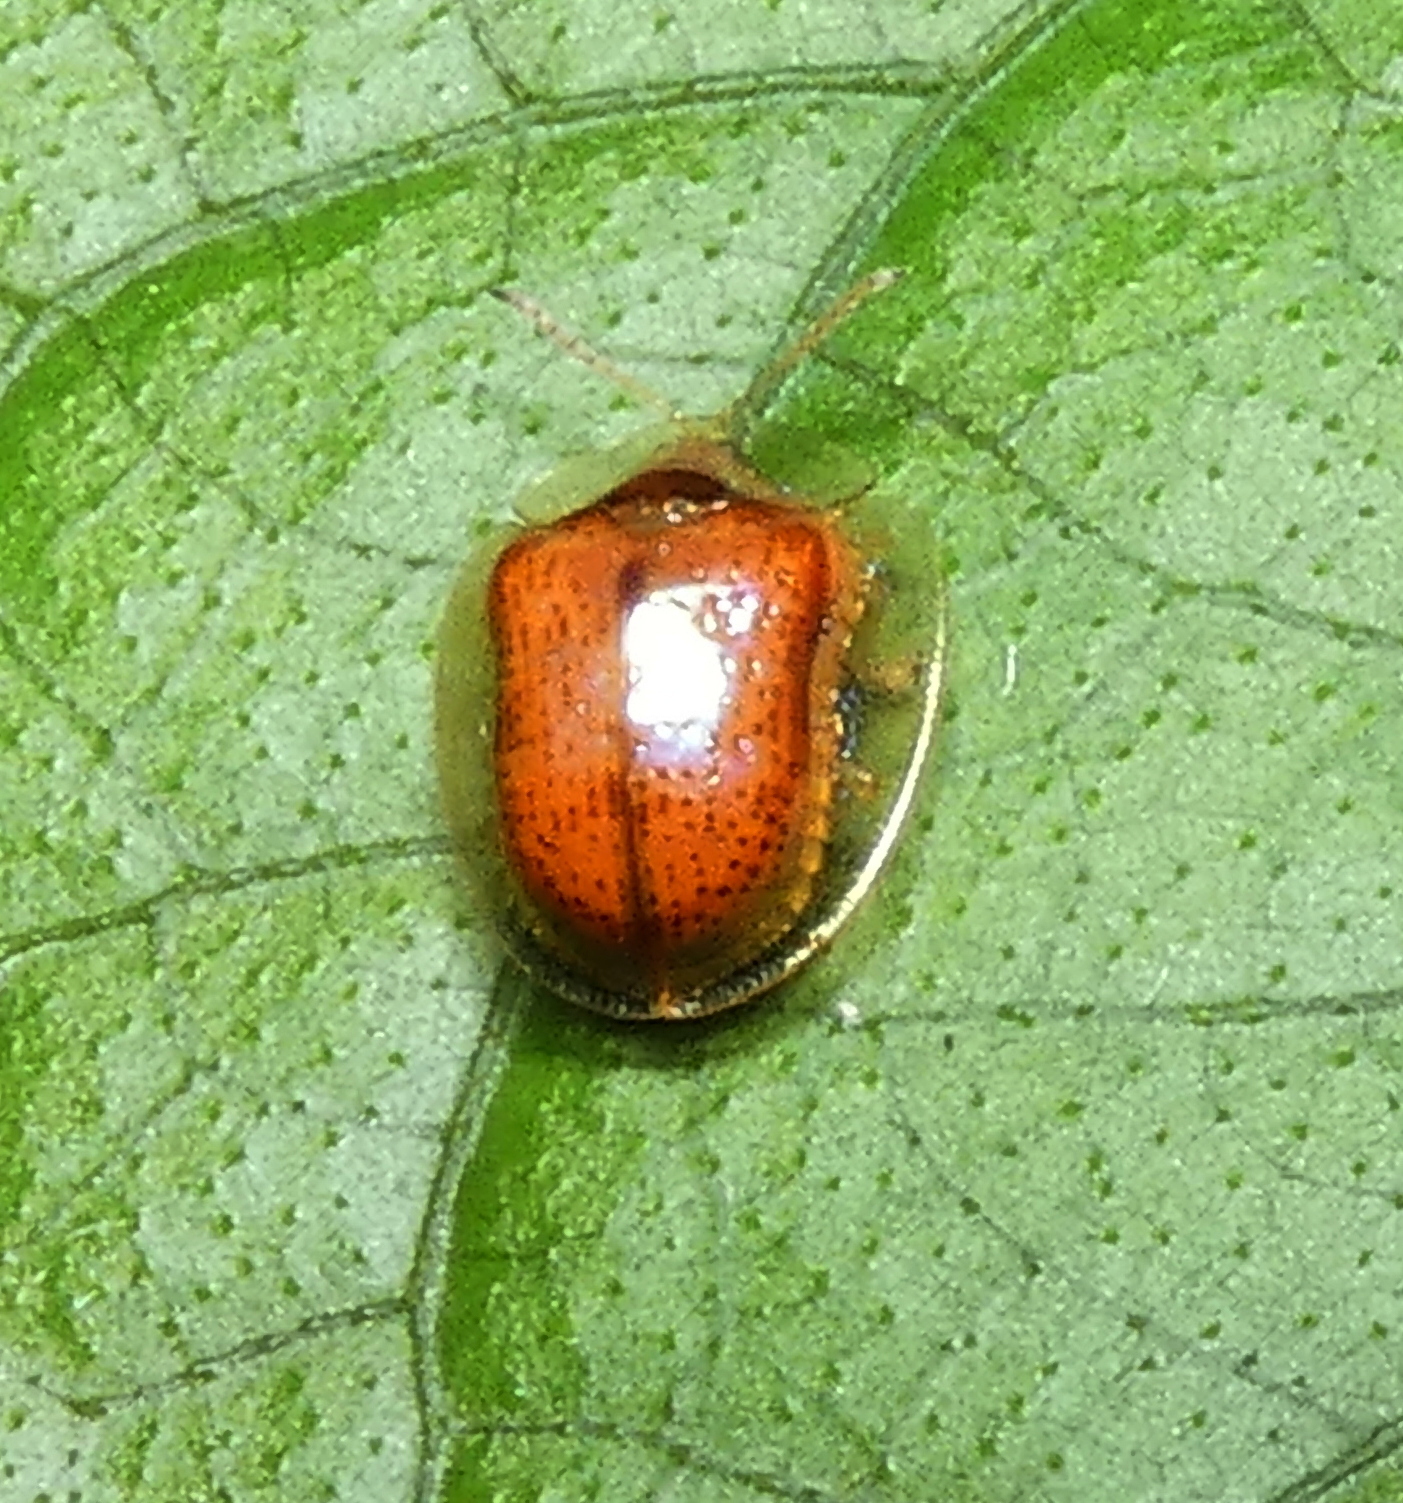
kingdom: Animalia
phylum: Arthropoda
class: Insecta
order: Coleoptera
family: Chrysomelidae
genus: Microctenochira
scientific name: Microctenochira quadrata
